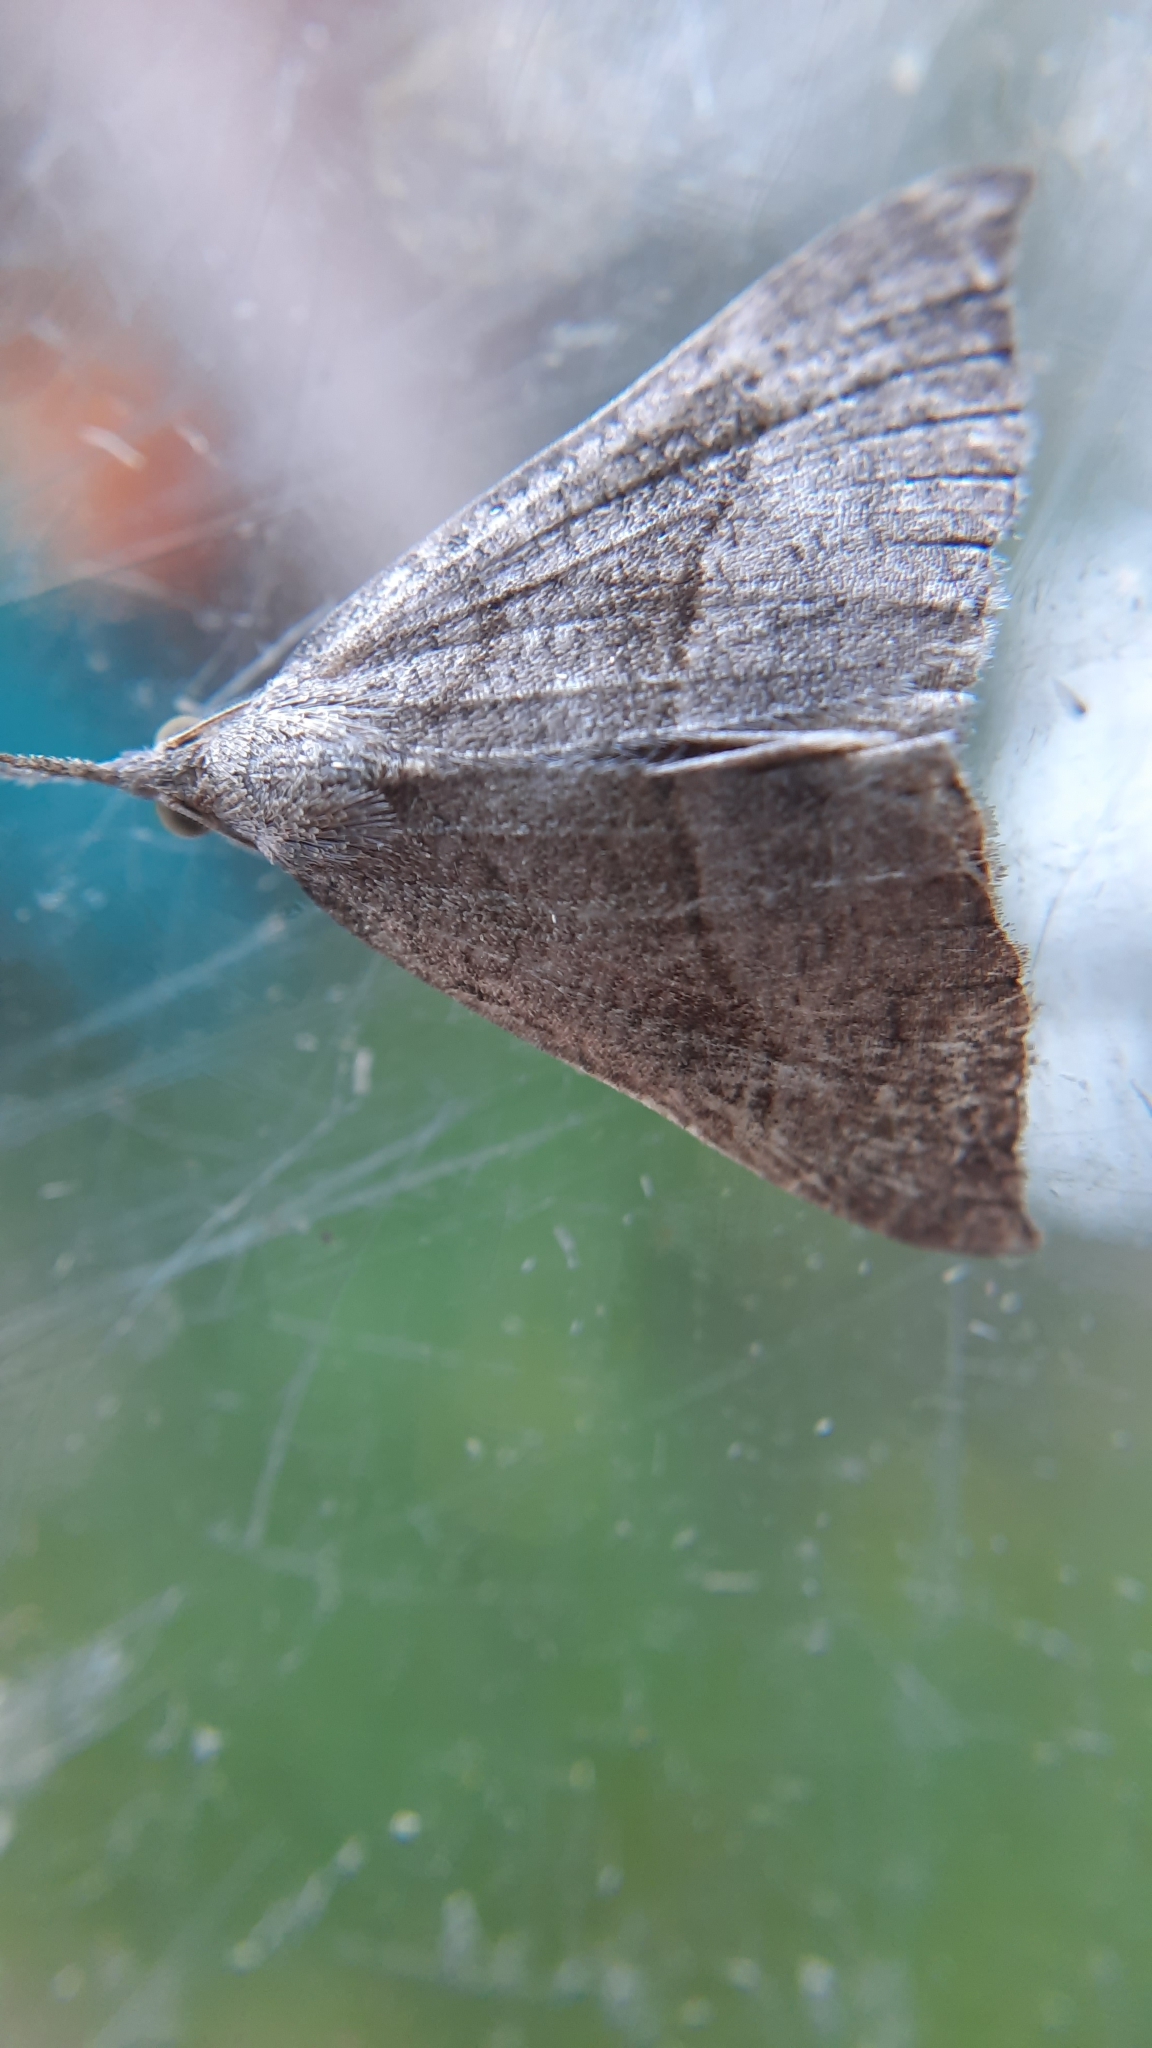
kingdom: Animalia
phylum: Arthropoda
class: Insecta
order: Lepidoptera
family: Erebidae
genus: Hypena
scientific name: Hypena proboscidalis
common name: Snout
